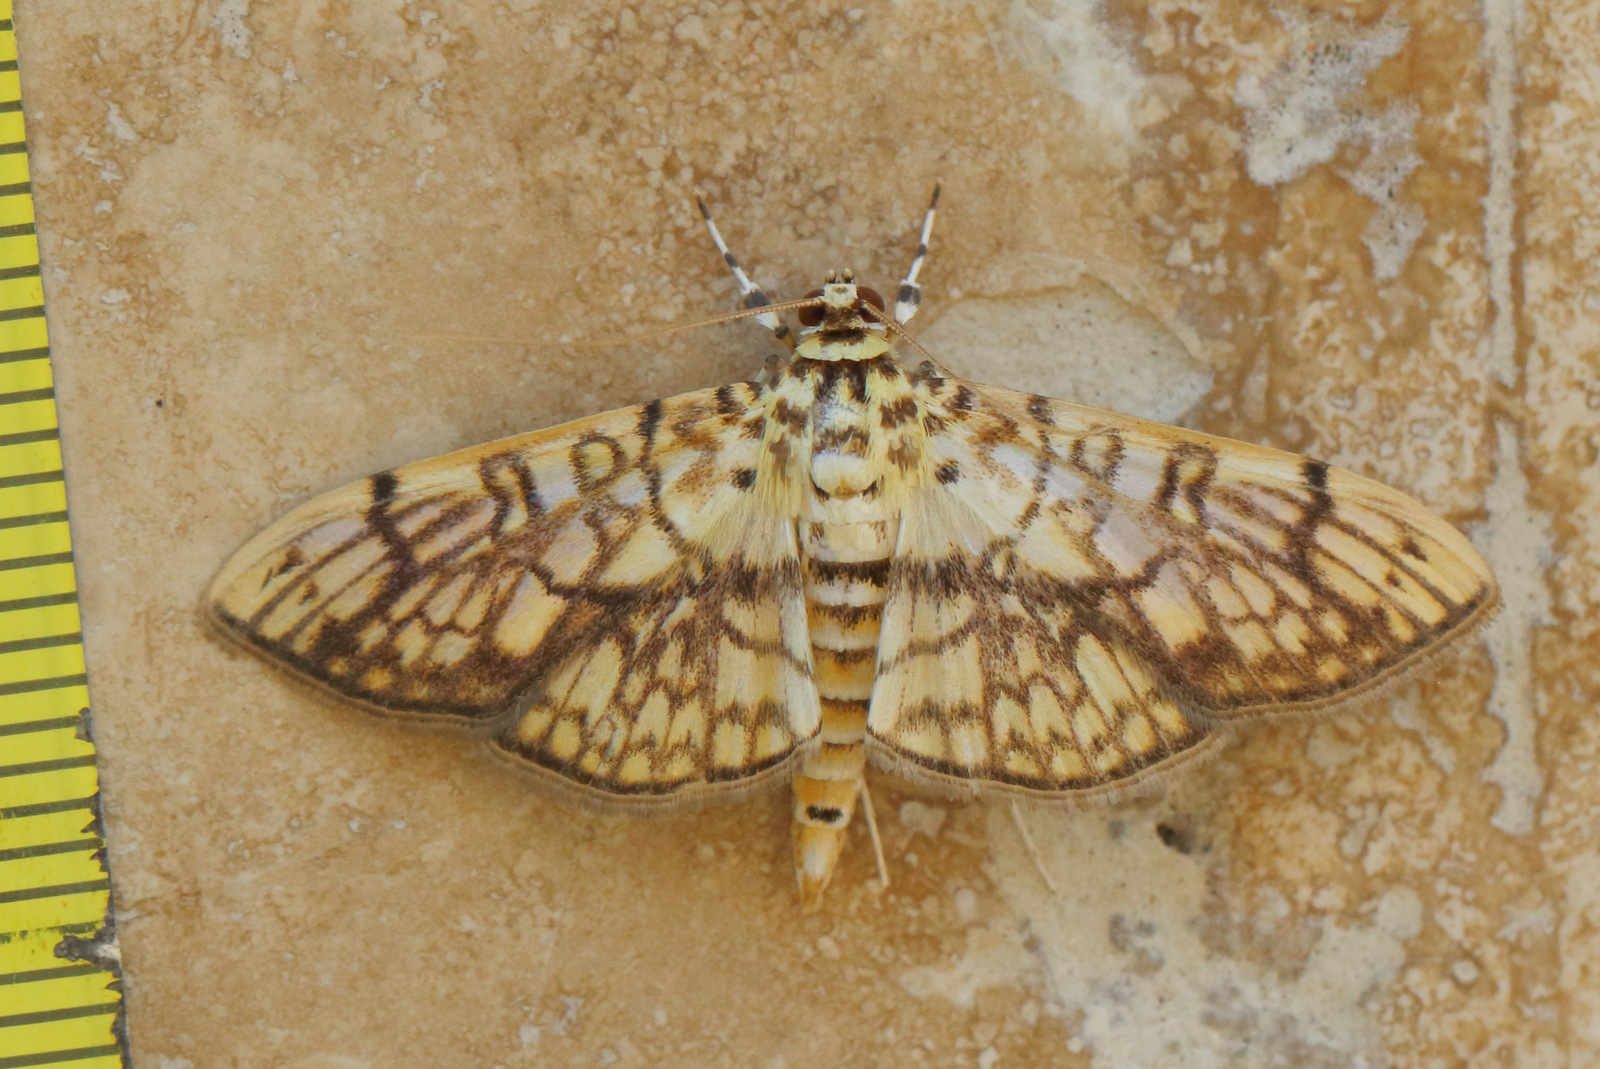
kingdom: Animalia
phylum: Arthropoda
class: Insecta
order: Lepidoptera
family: Crambidae
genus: Haritalodes
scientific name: Haritalodes derogata
